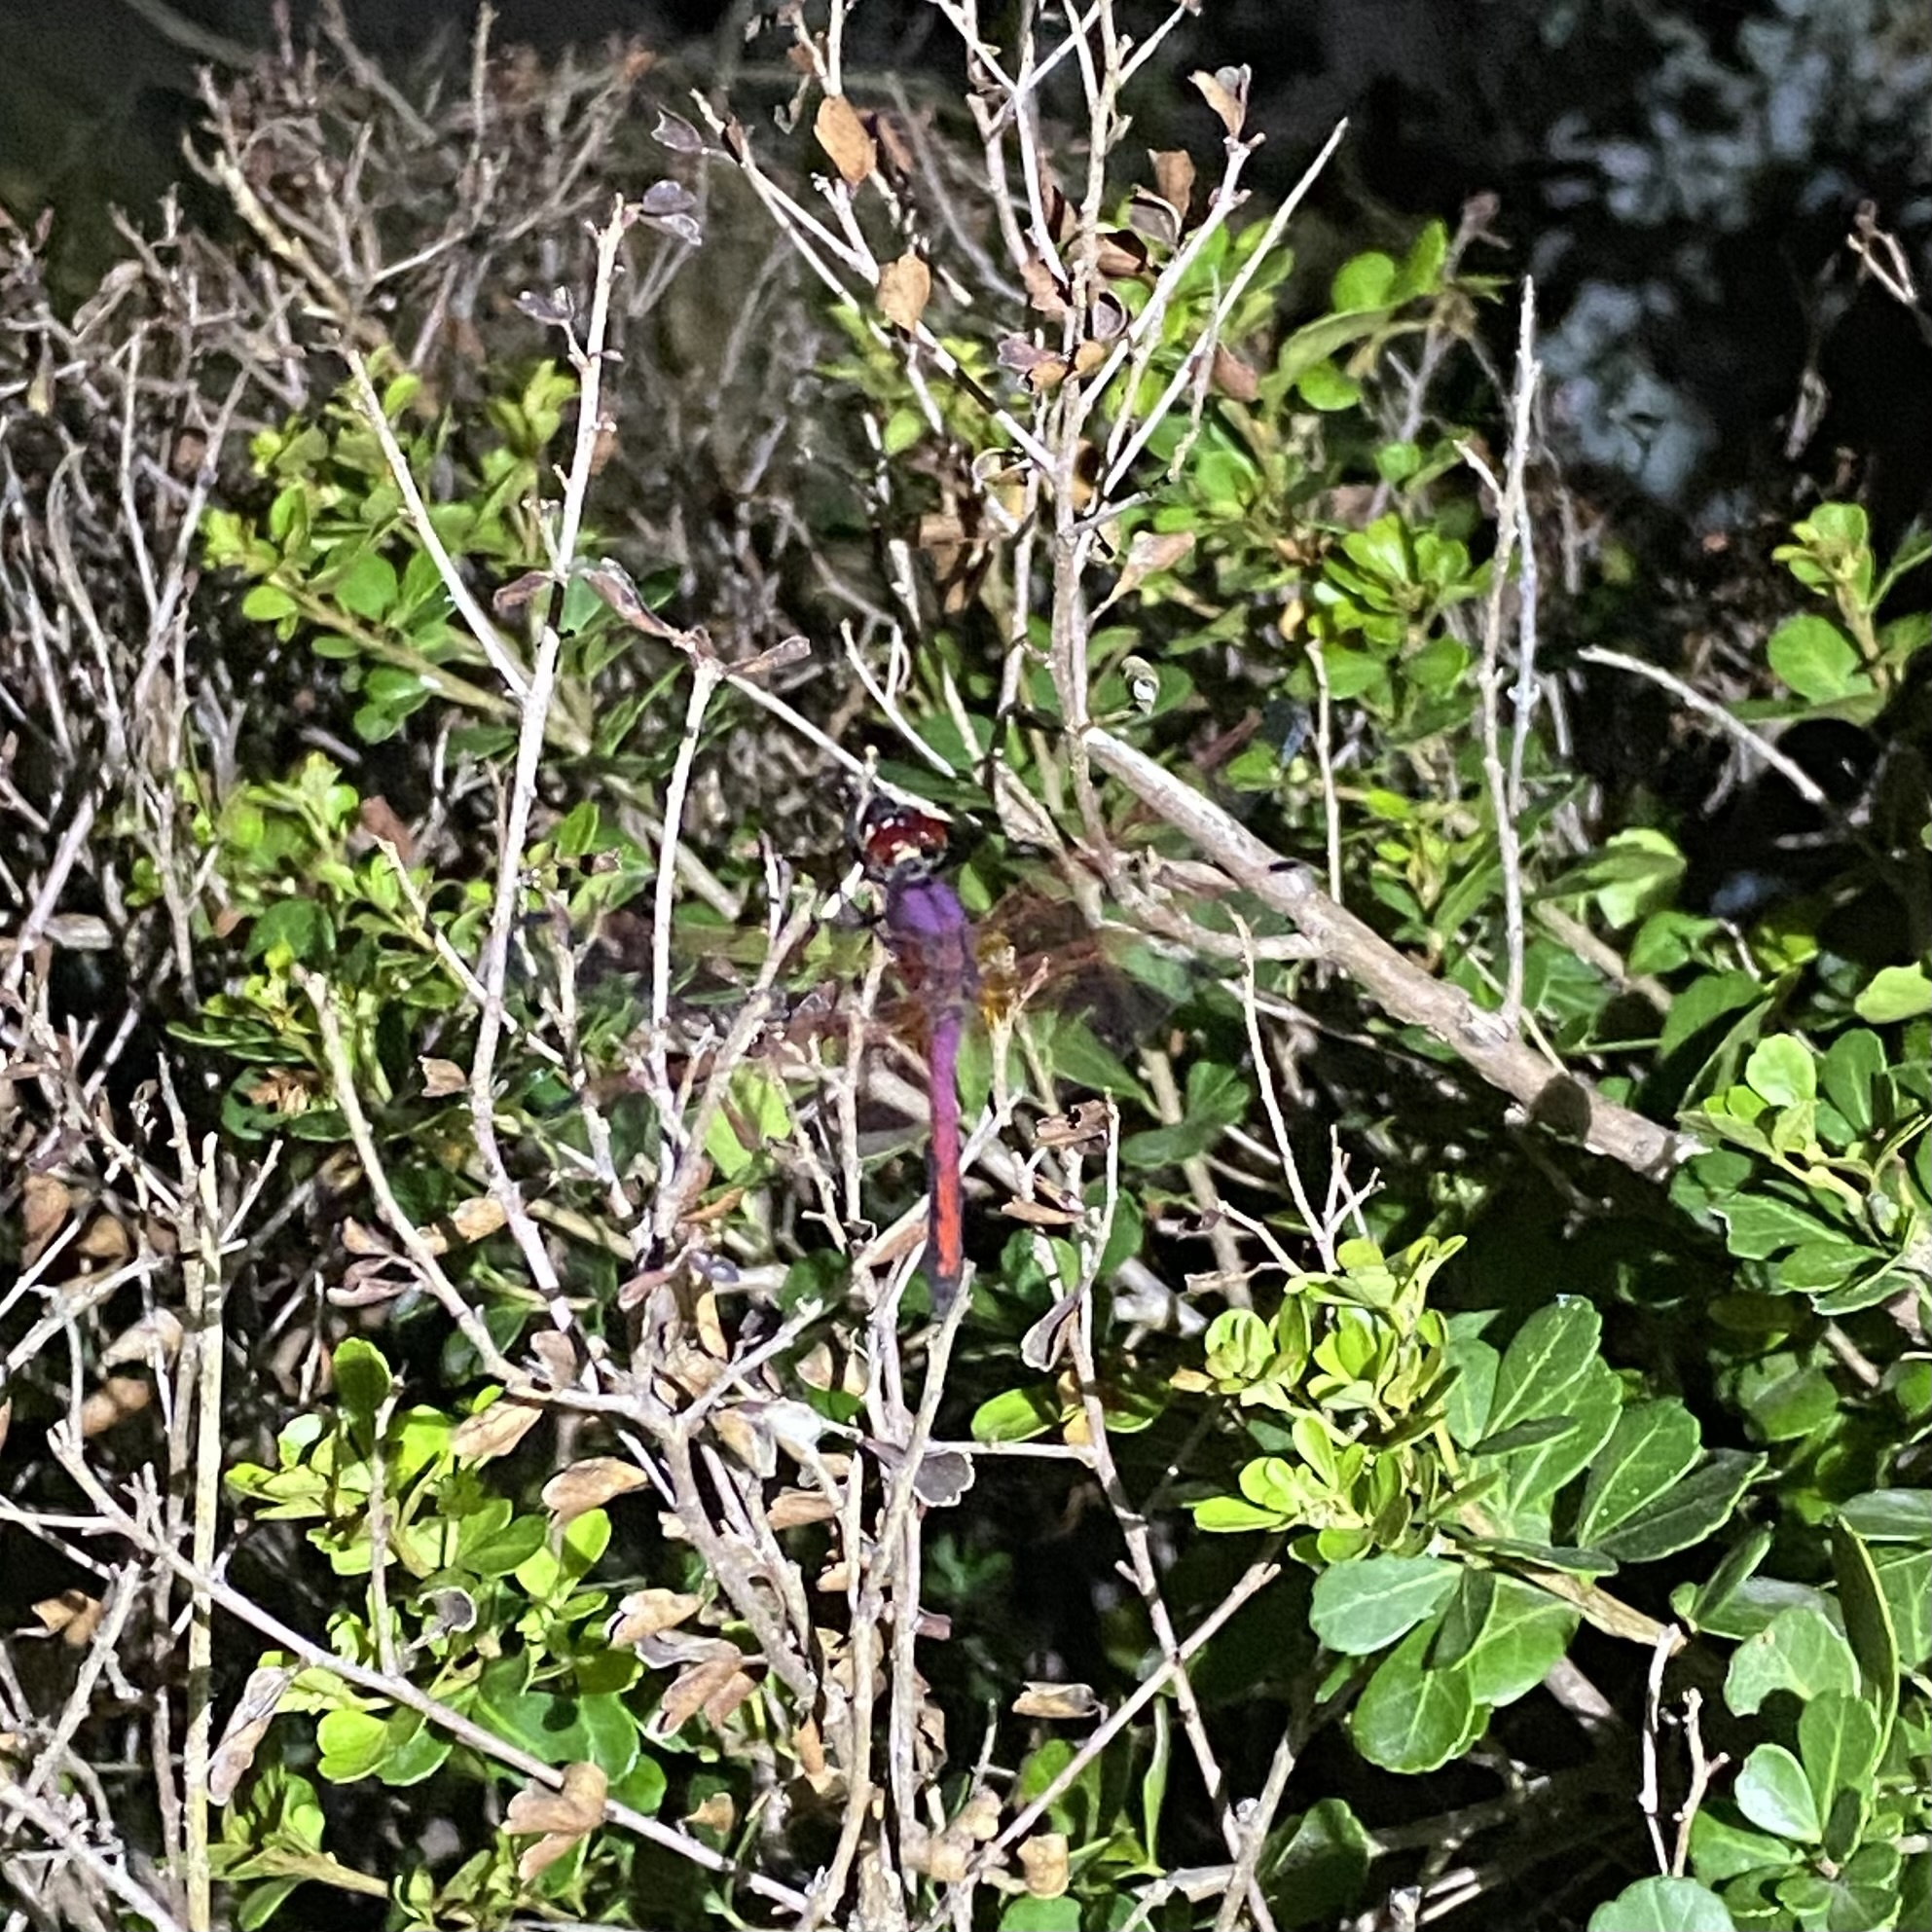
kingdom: Animalia
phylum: Arthropoda
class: Insecta
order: Odonata
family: Libellulidae
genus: Trithemis
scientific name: Trithemis arteriosa
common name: Red-veined dropwing
